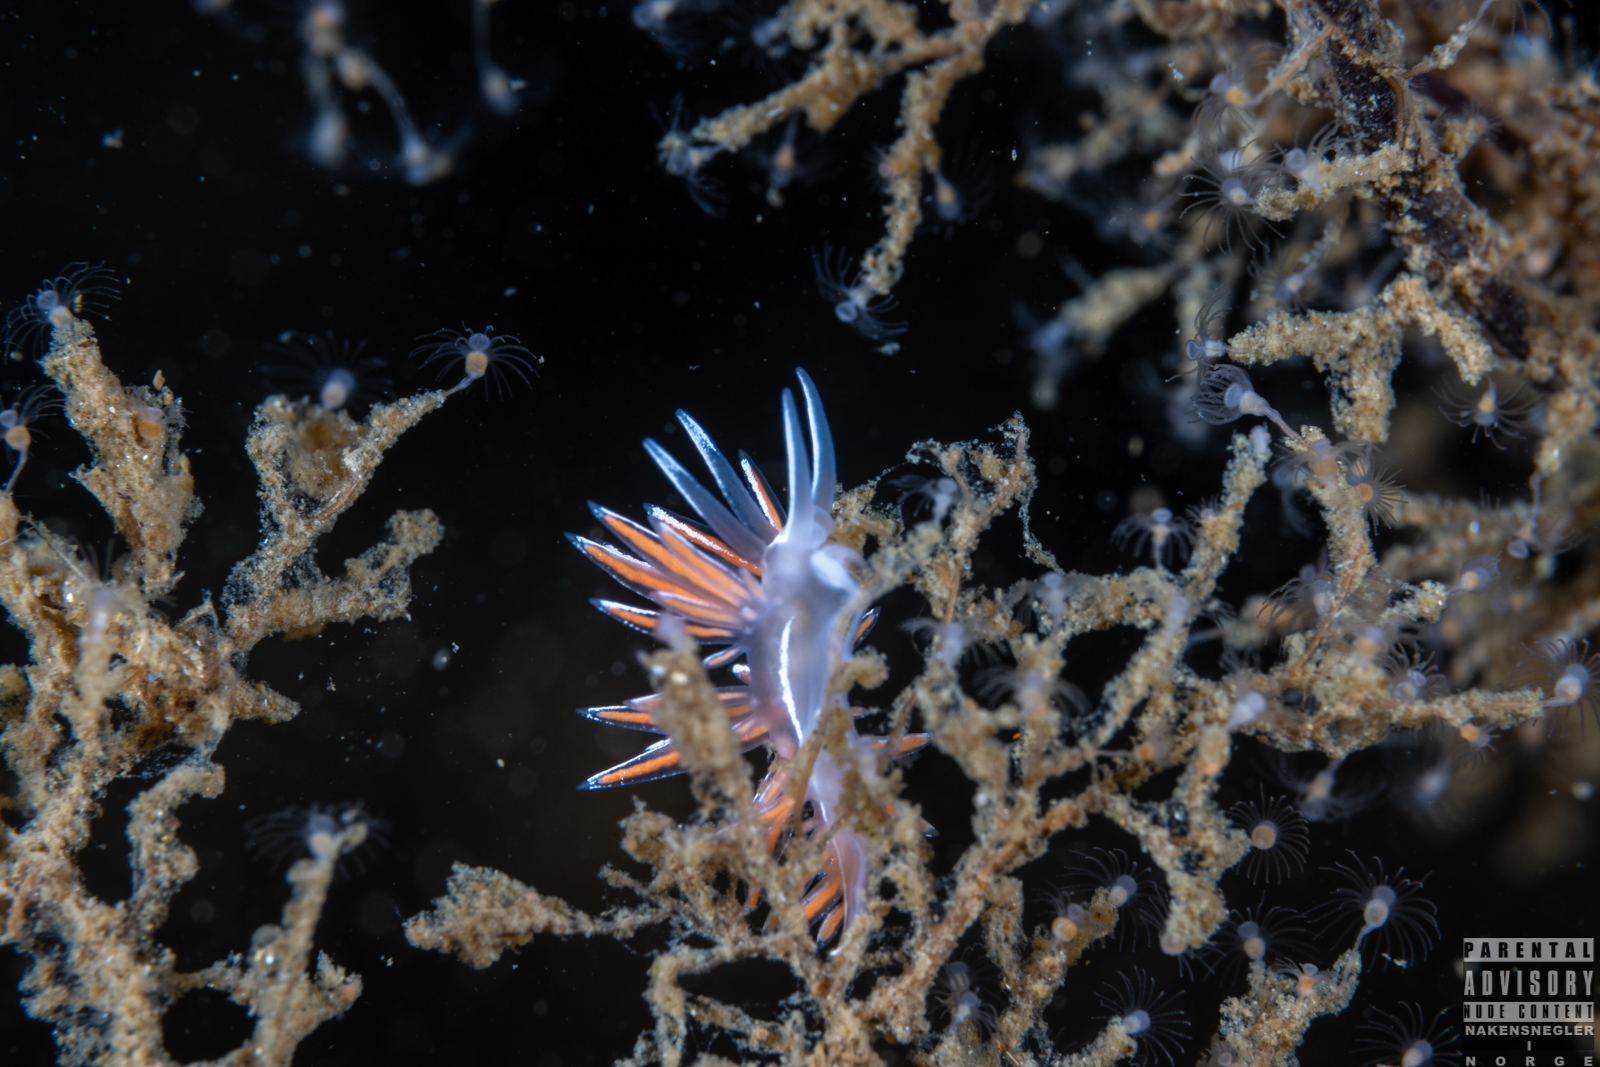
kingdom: Animalia
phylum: Mollusca
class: Gastropoda
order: Nudibranchia
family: Coryphellidae
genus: Coryphella
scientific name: Coryphella lineata
